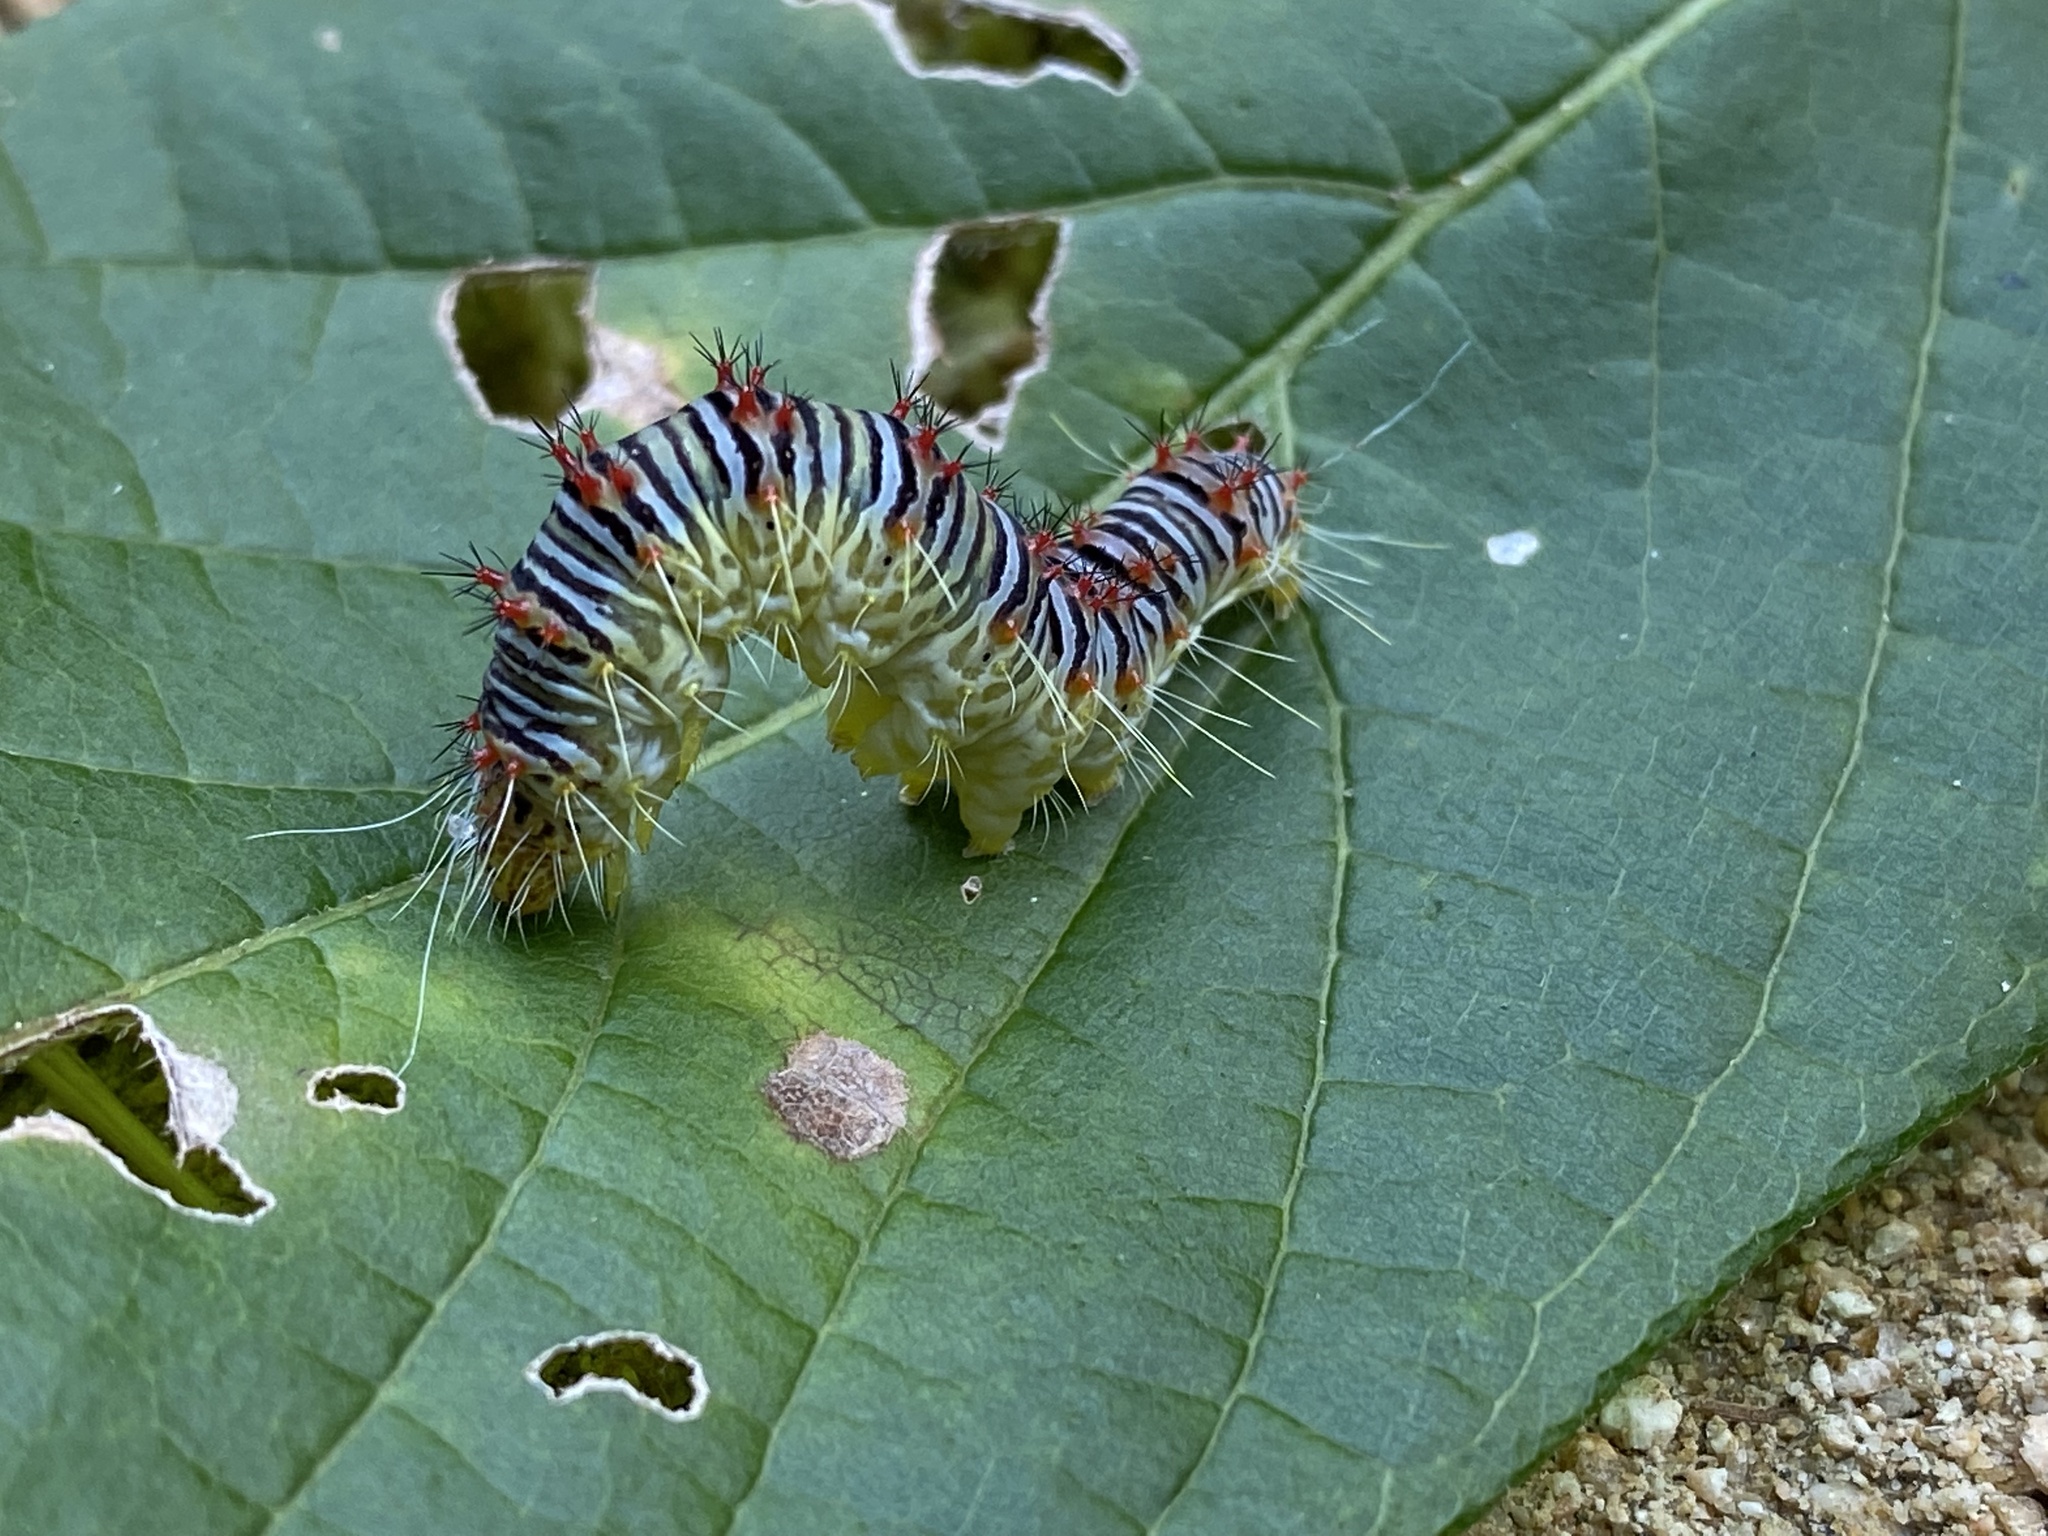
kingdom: Animalia
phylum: Arthropoda
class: Insecta
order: Lepidoptera
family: Noctuidae
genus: Acronicta
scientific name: Acronicta retardata
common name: Maple dagger
